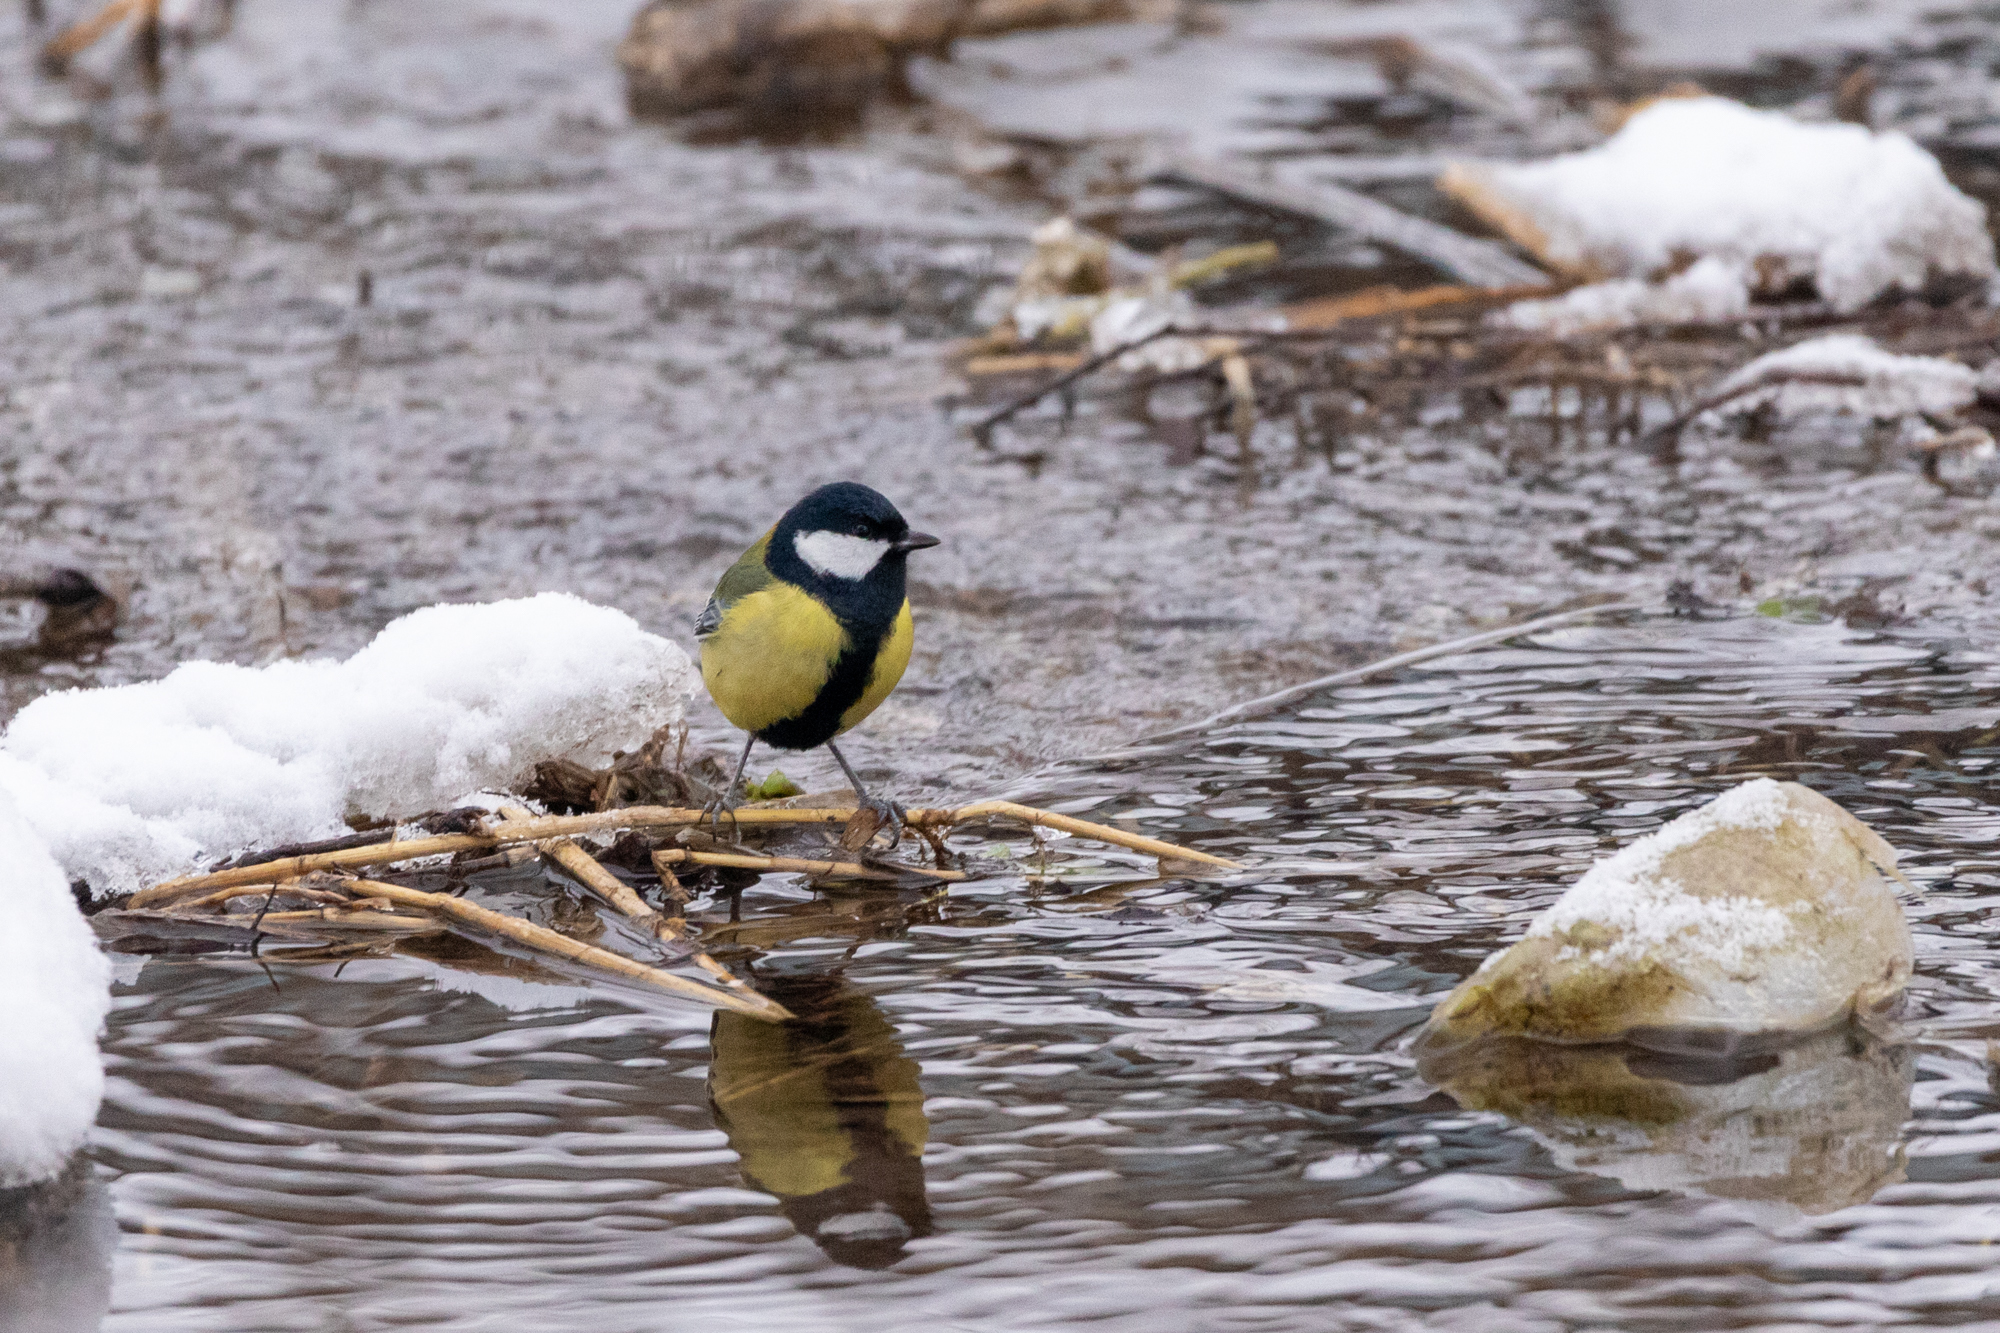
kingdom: Animalia
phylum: Chordata
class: Aves
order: Passeriformes
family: Paridae
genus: Parus
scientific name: Parus major
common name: Great tit
